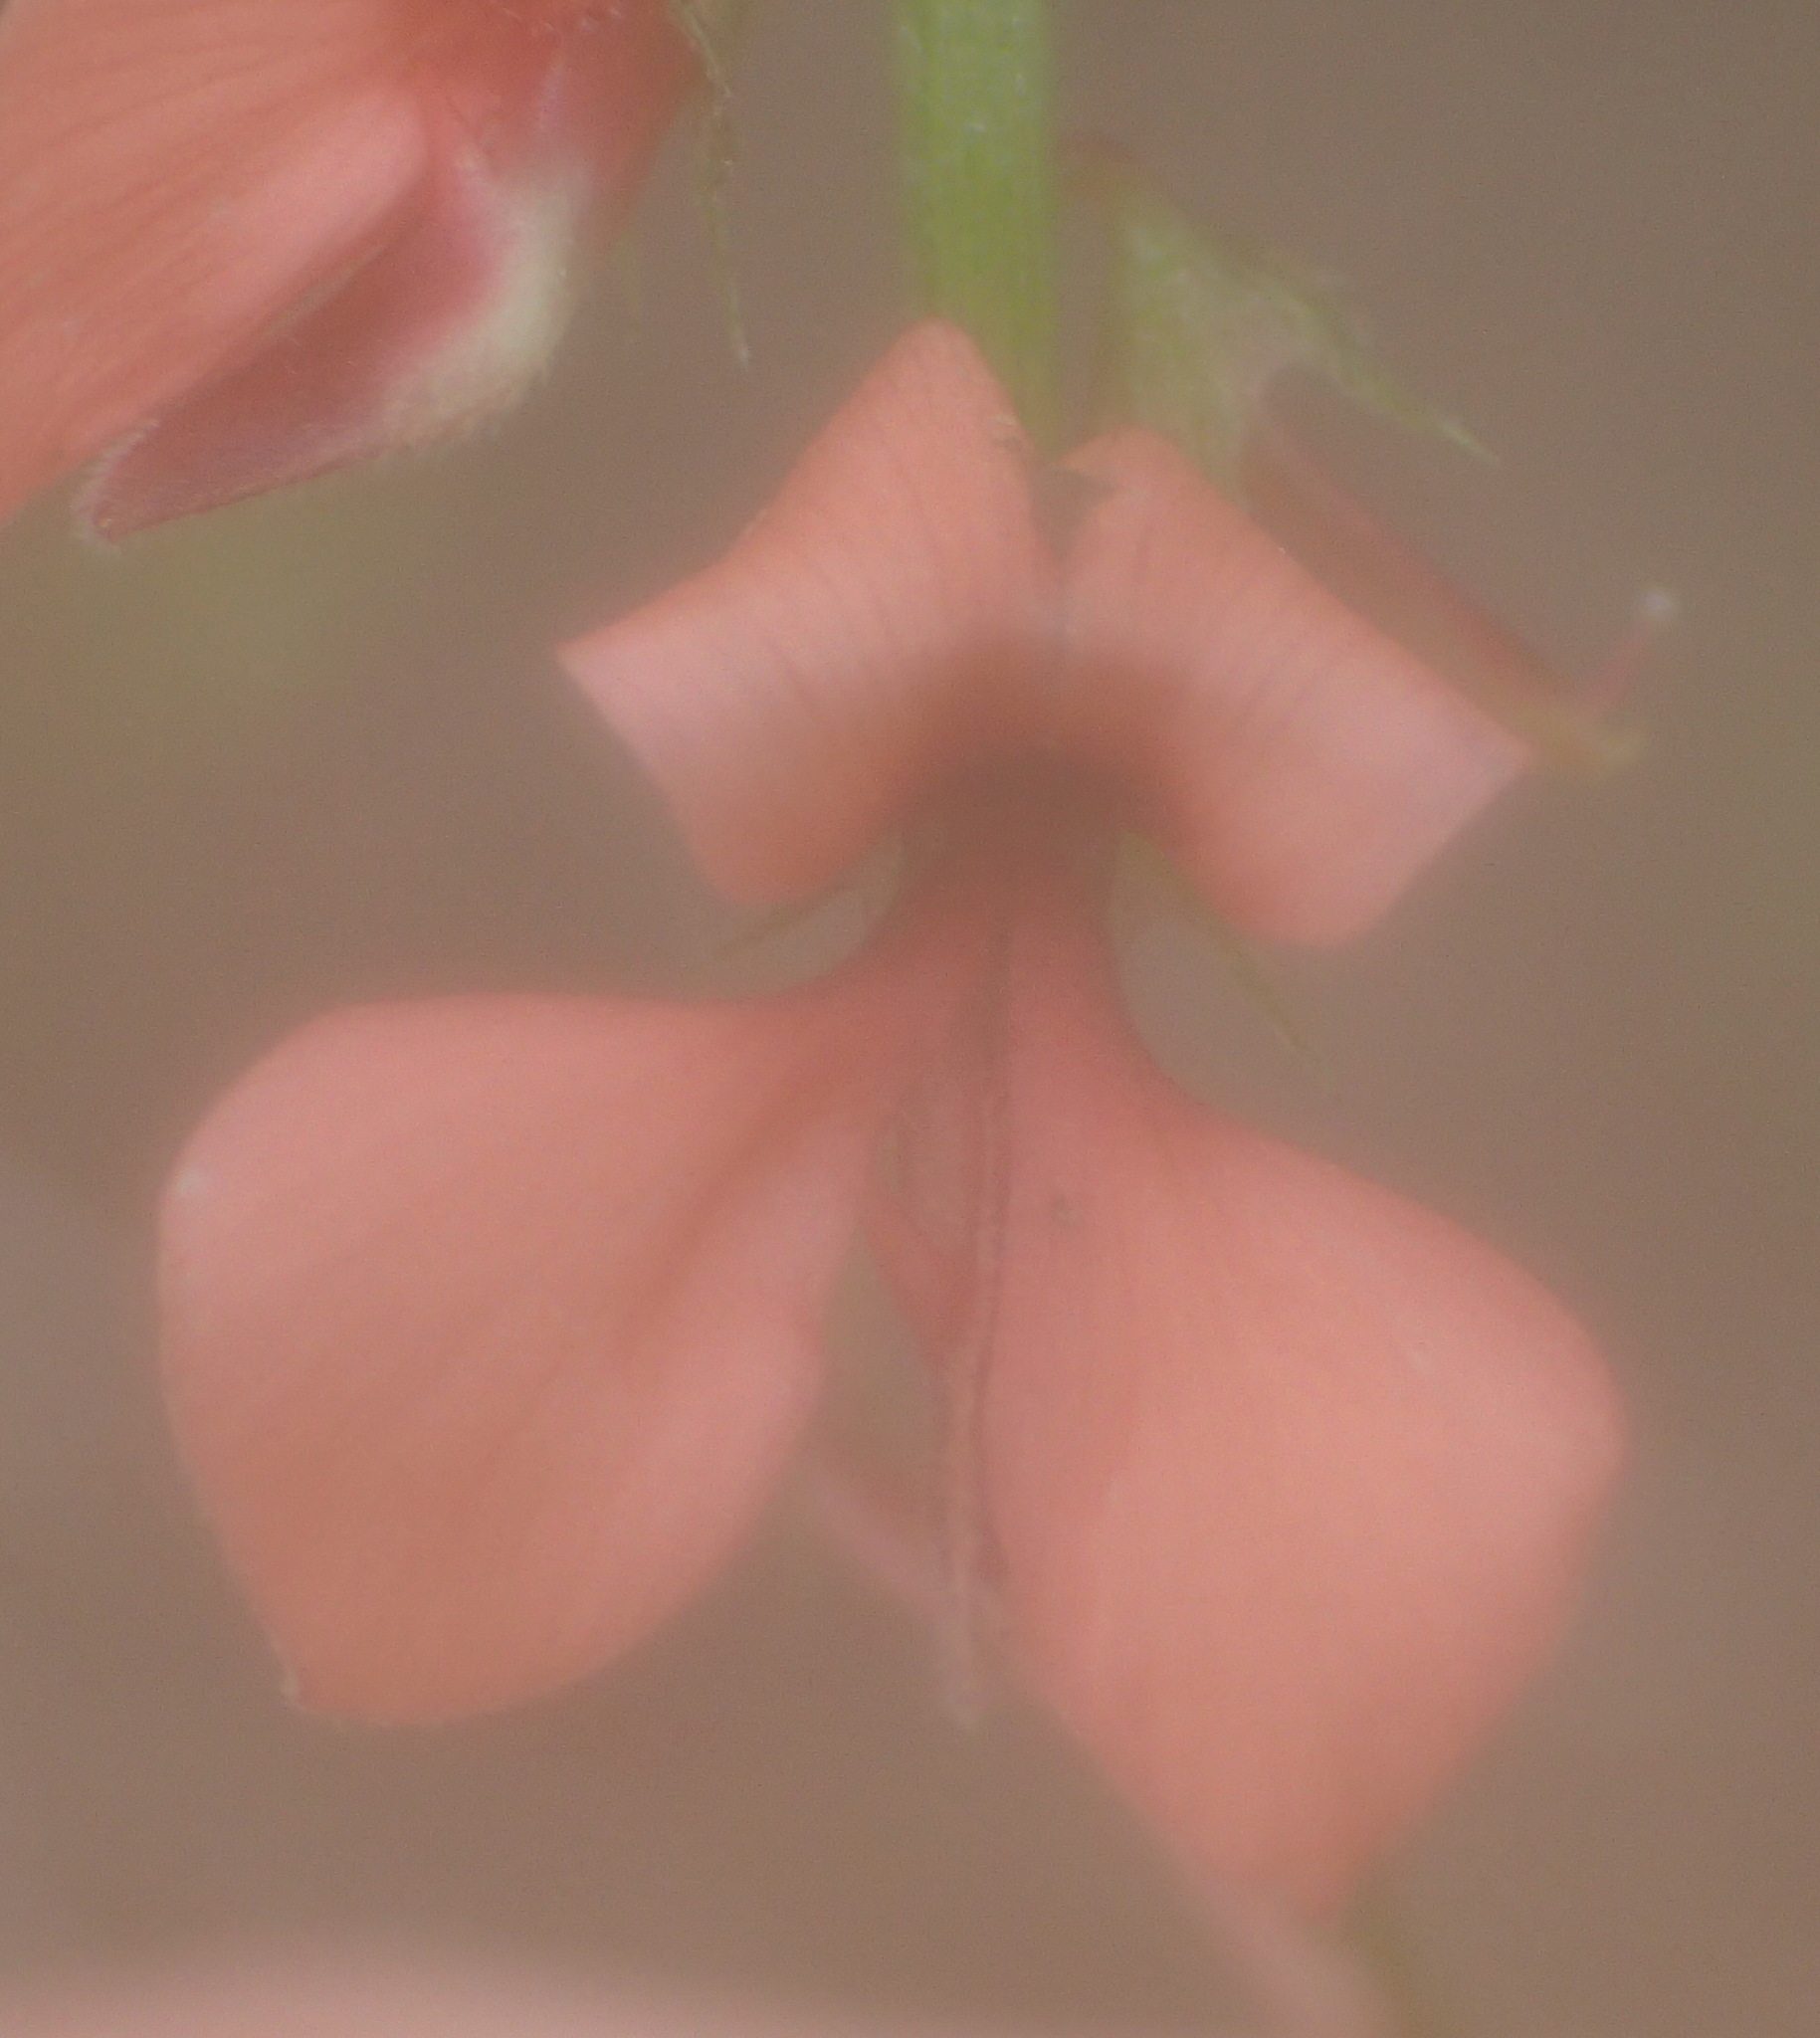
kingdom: Plantae
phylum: Tracheophyta
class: Magnoliopsida
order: Fabales
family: Fabaceae
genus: Indigofera
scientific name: Indigofera heterophylla
